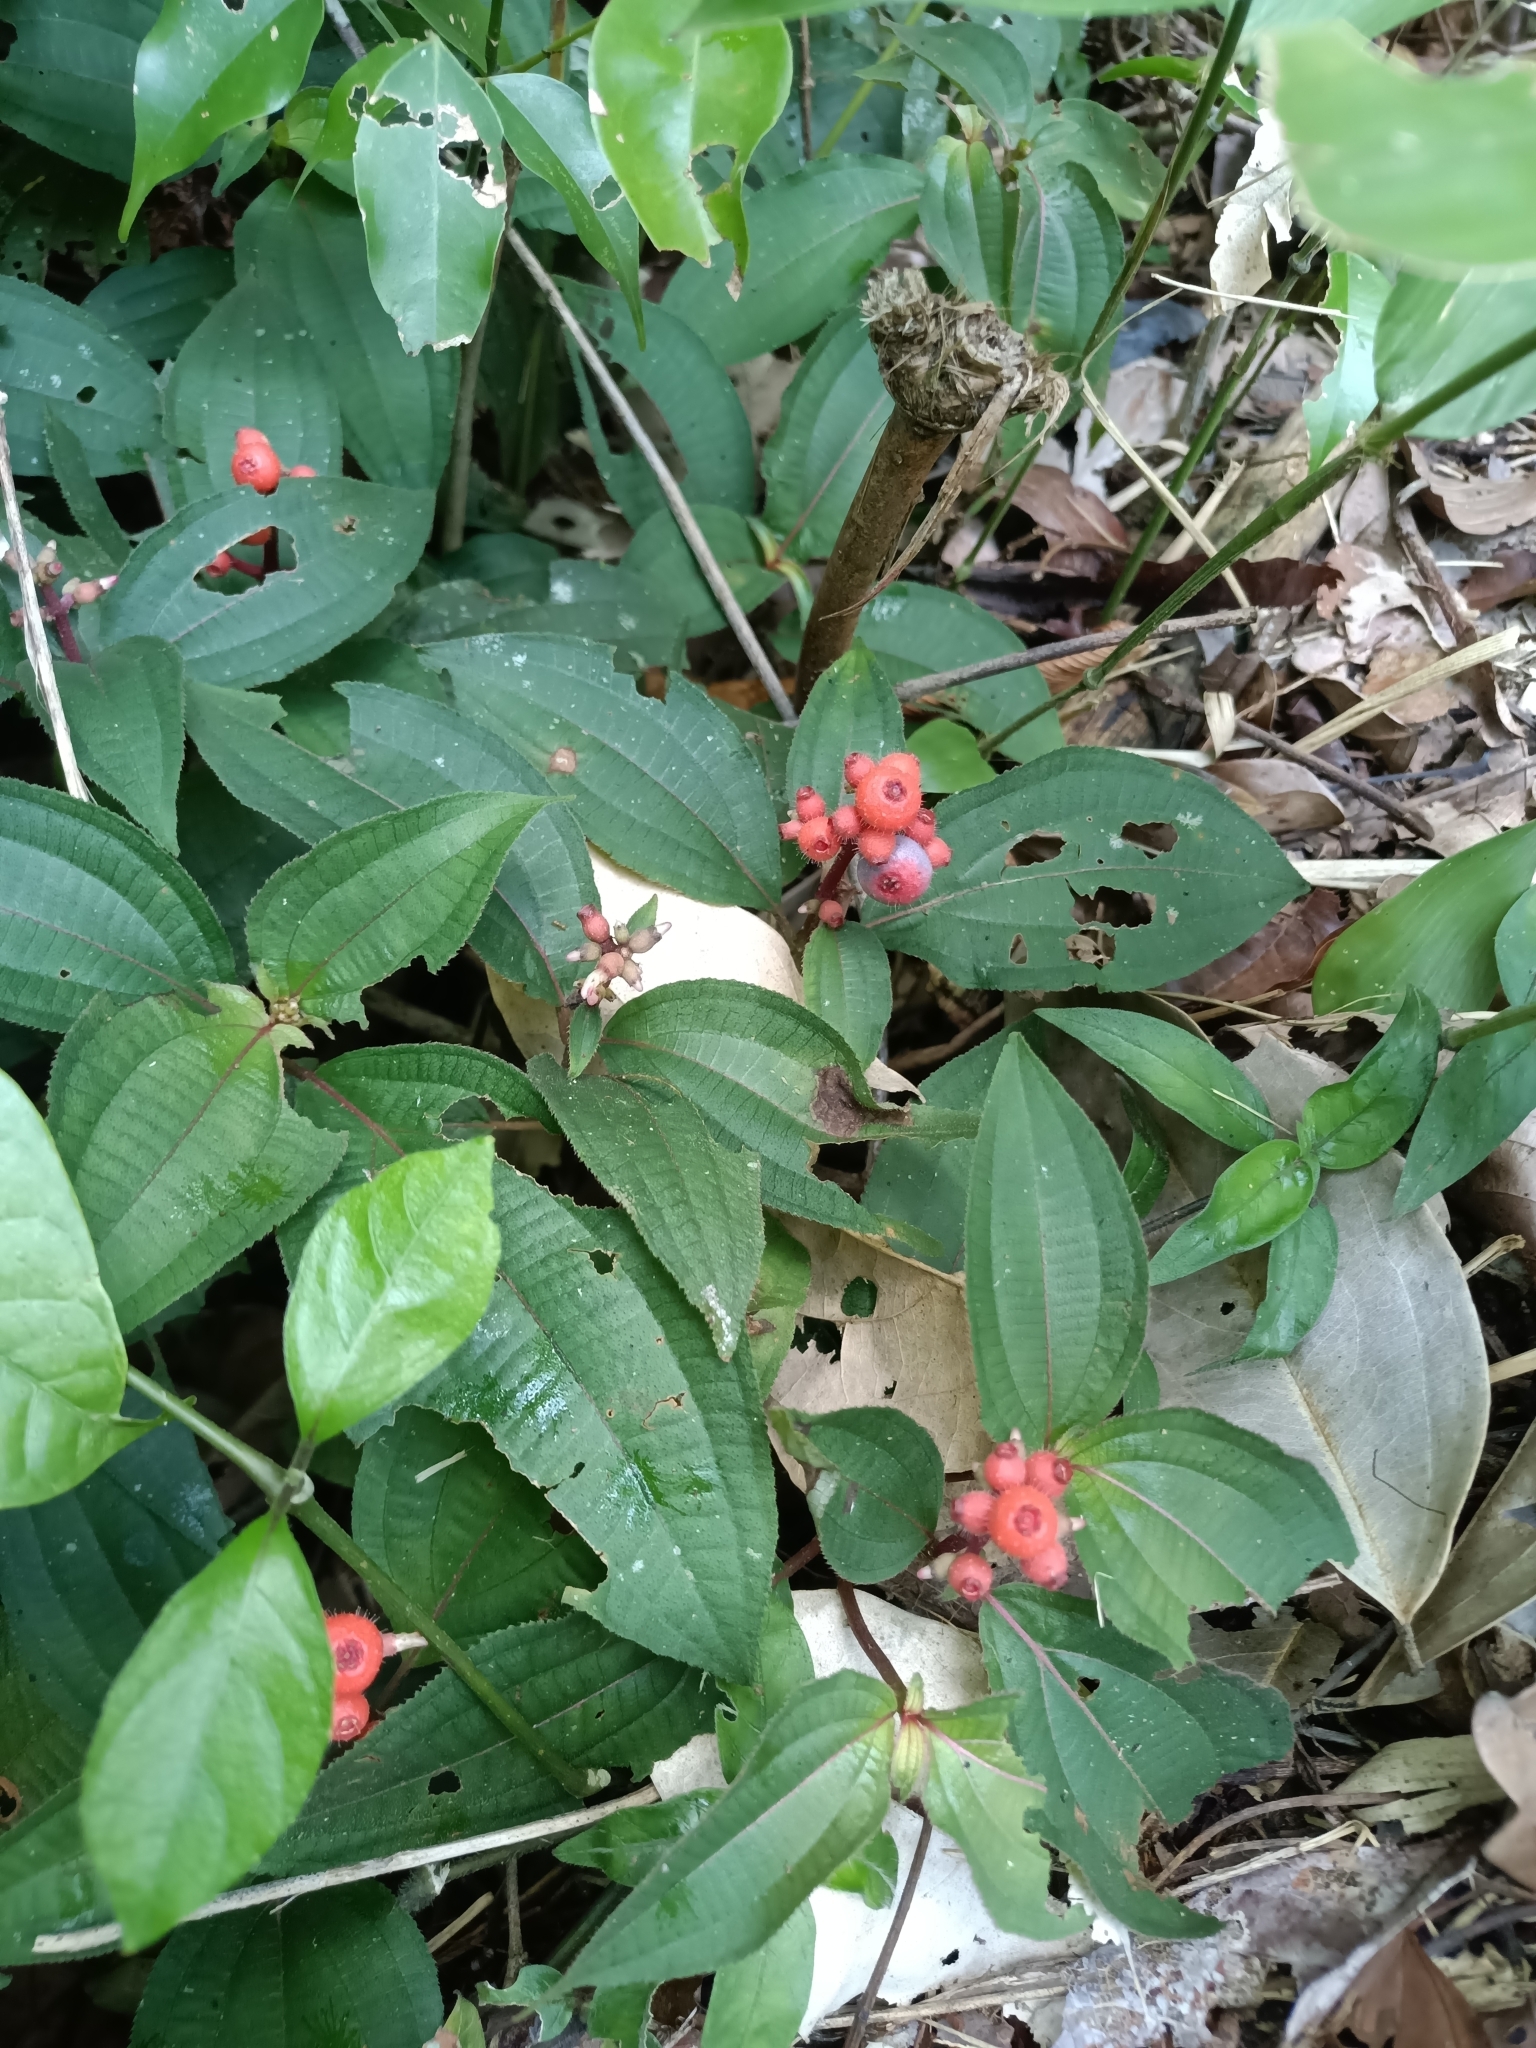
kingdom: Plantae
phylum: Tracheophyta
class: Magnoliopsida
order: Myrtales
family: Melastomataceae
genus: Miconia
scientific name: Miconia ceramicarpa
